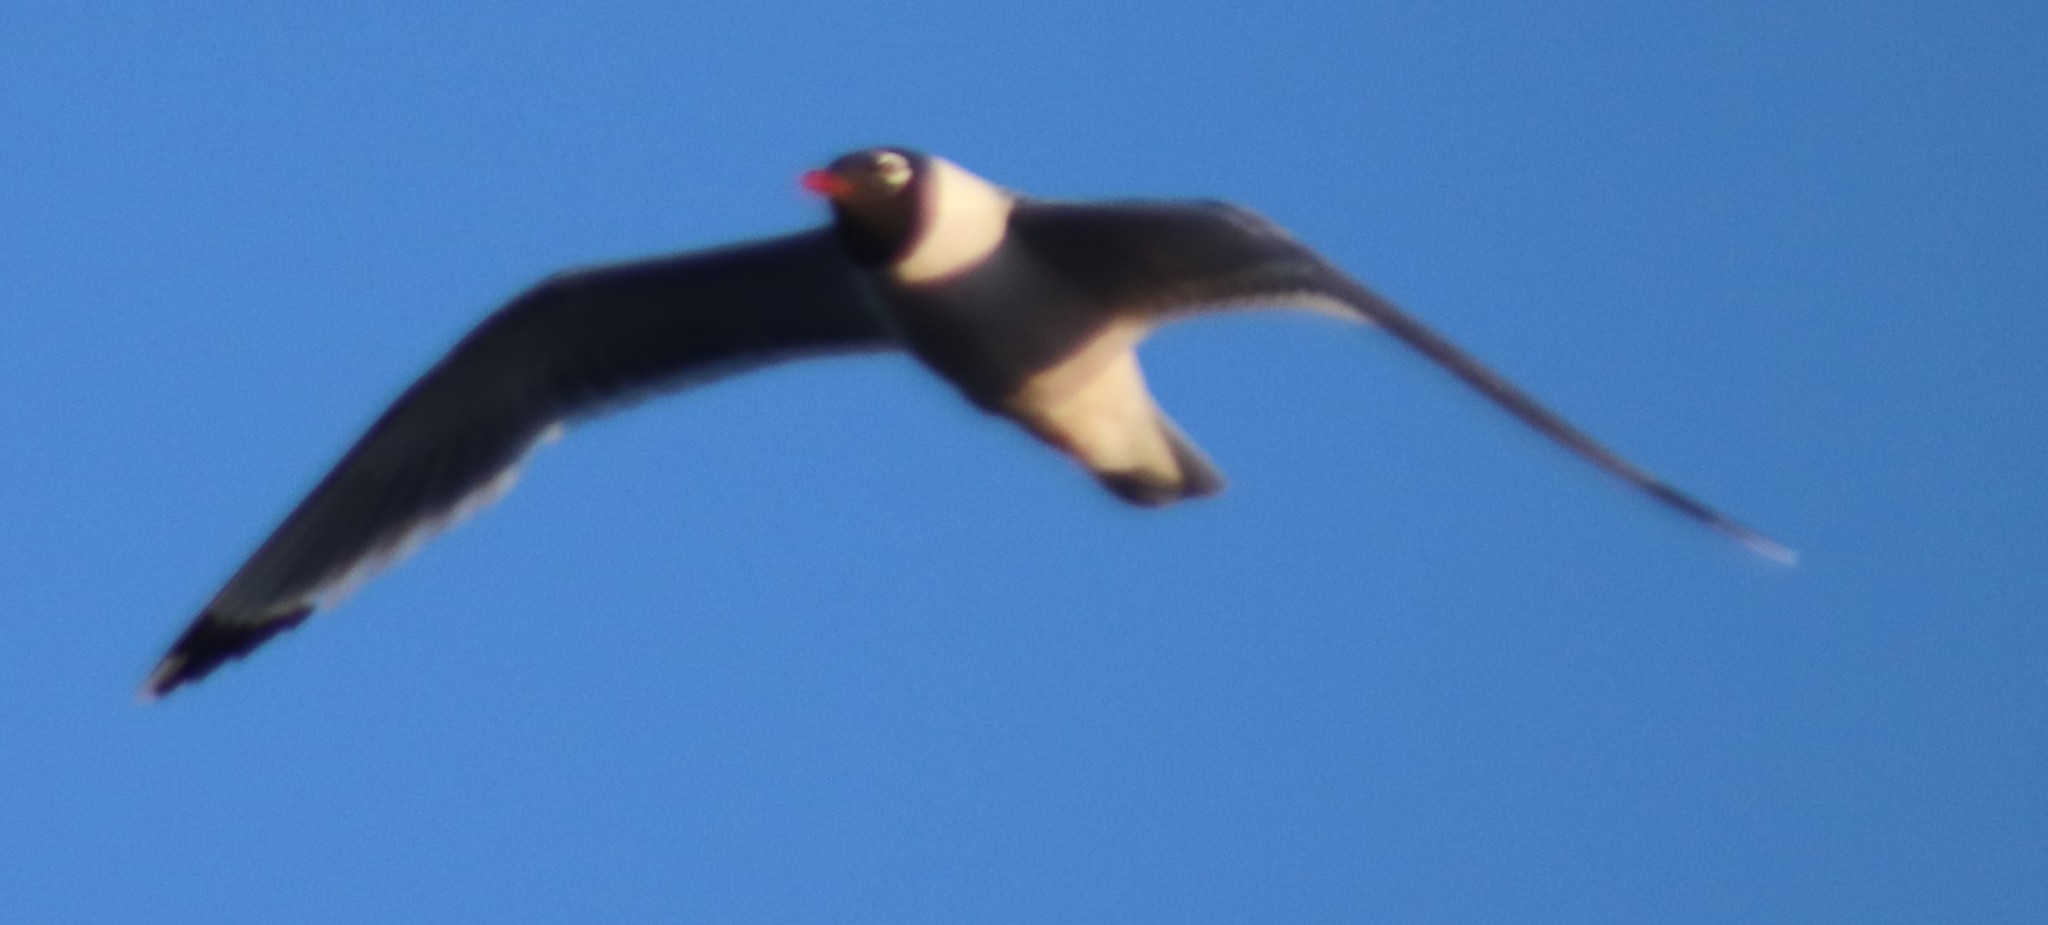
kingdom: Animalia
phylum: Chordata
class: Aves
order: Charadriiformes
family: Laridae
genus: Leucophaeus
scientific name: Leucophaeus pipixcan
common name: Franklin's gull
